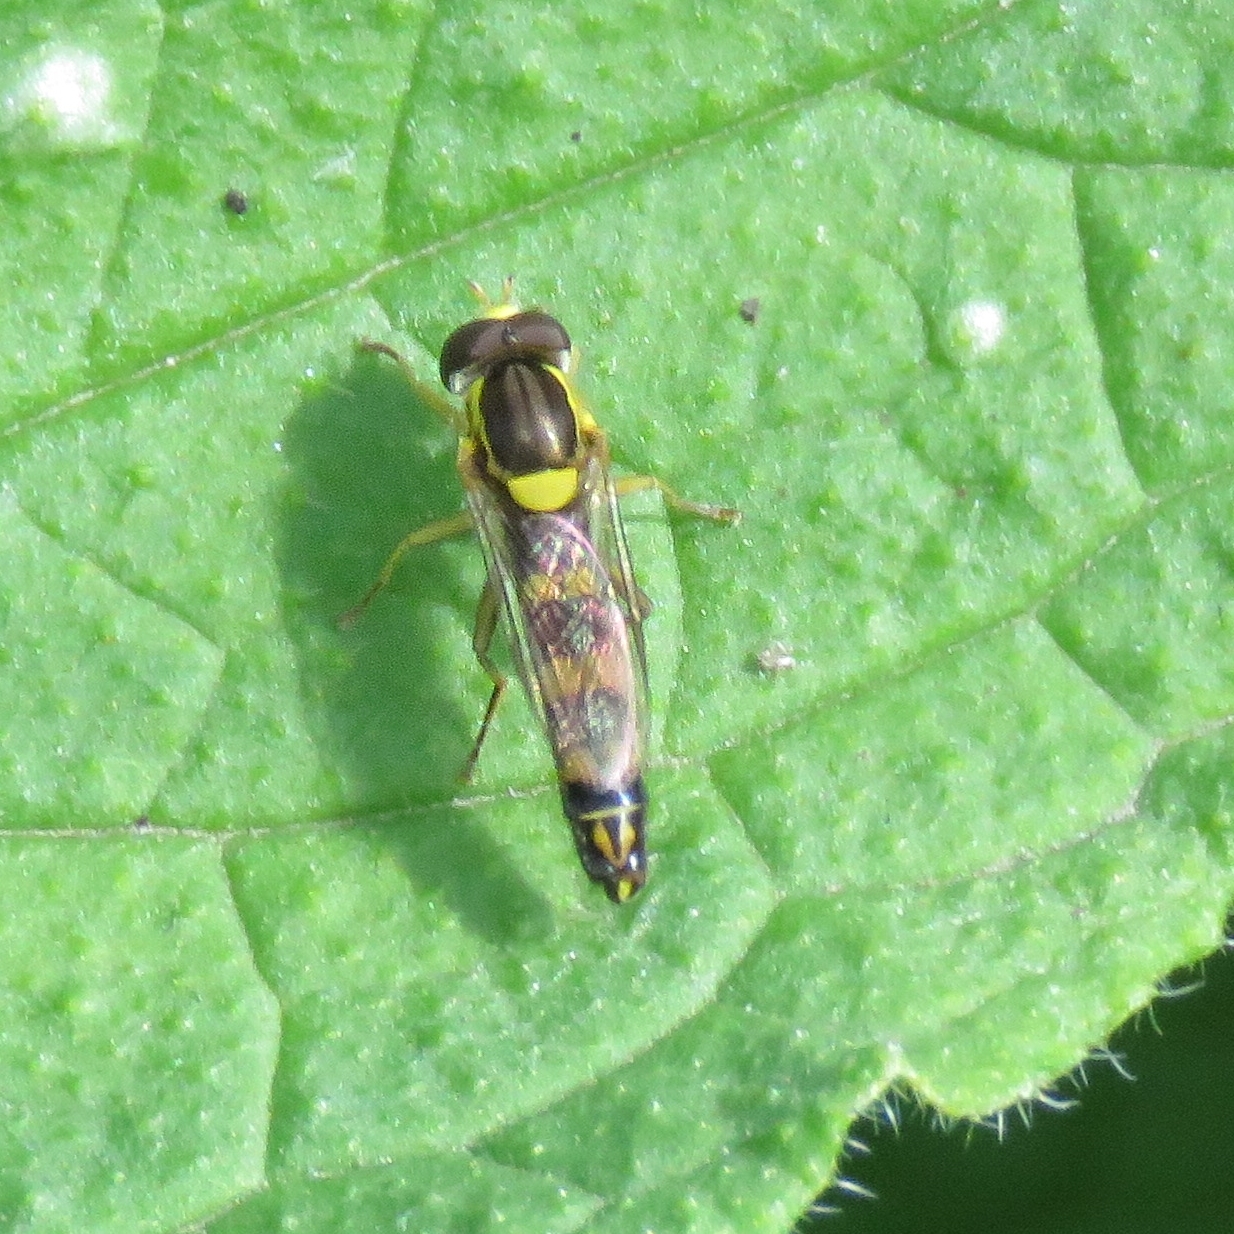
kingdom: Animalia
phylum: Arthropoda
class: Insecta
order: Diptera
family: Syrphidae
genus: Sphaerophoria
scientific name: Sphaerophoria scripta
